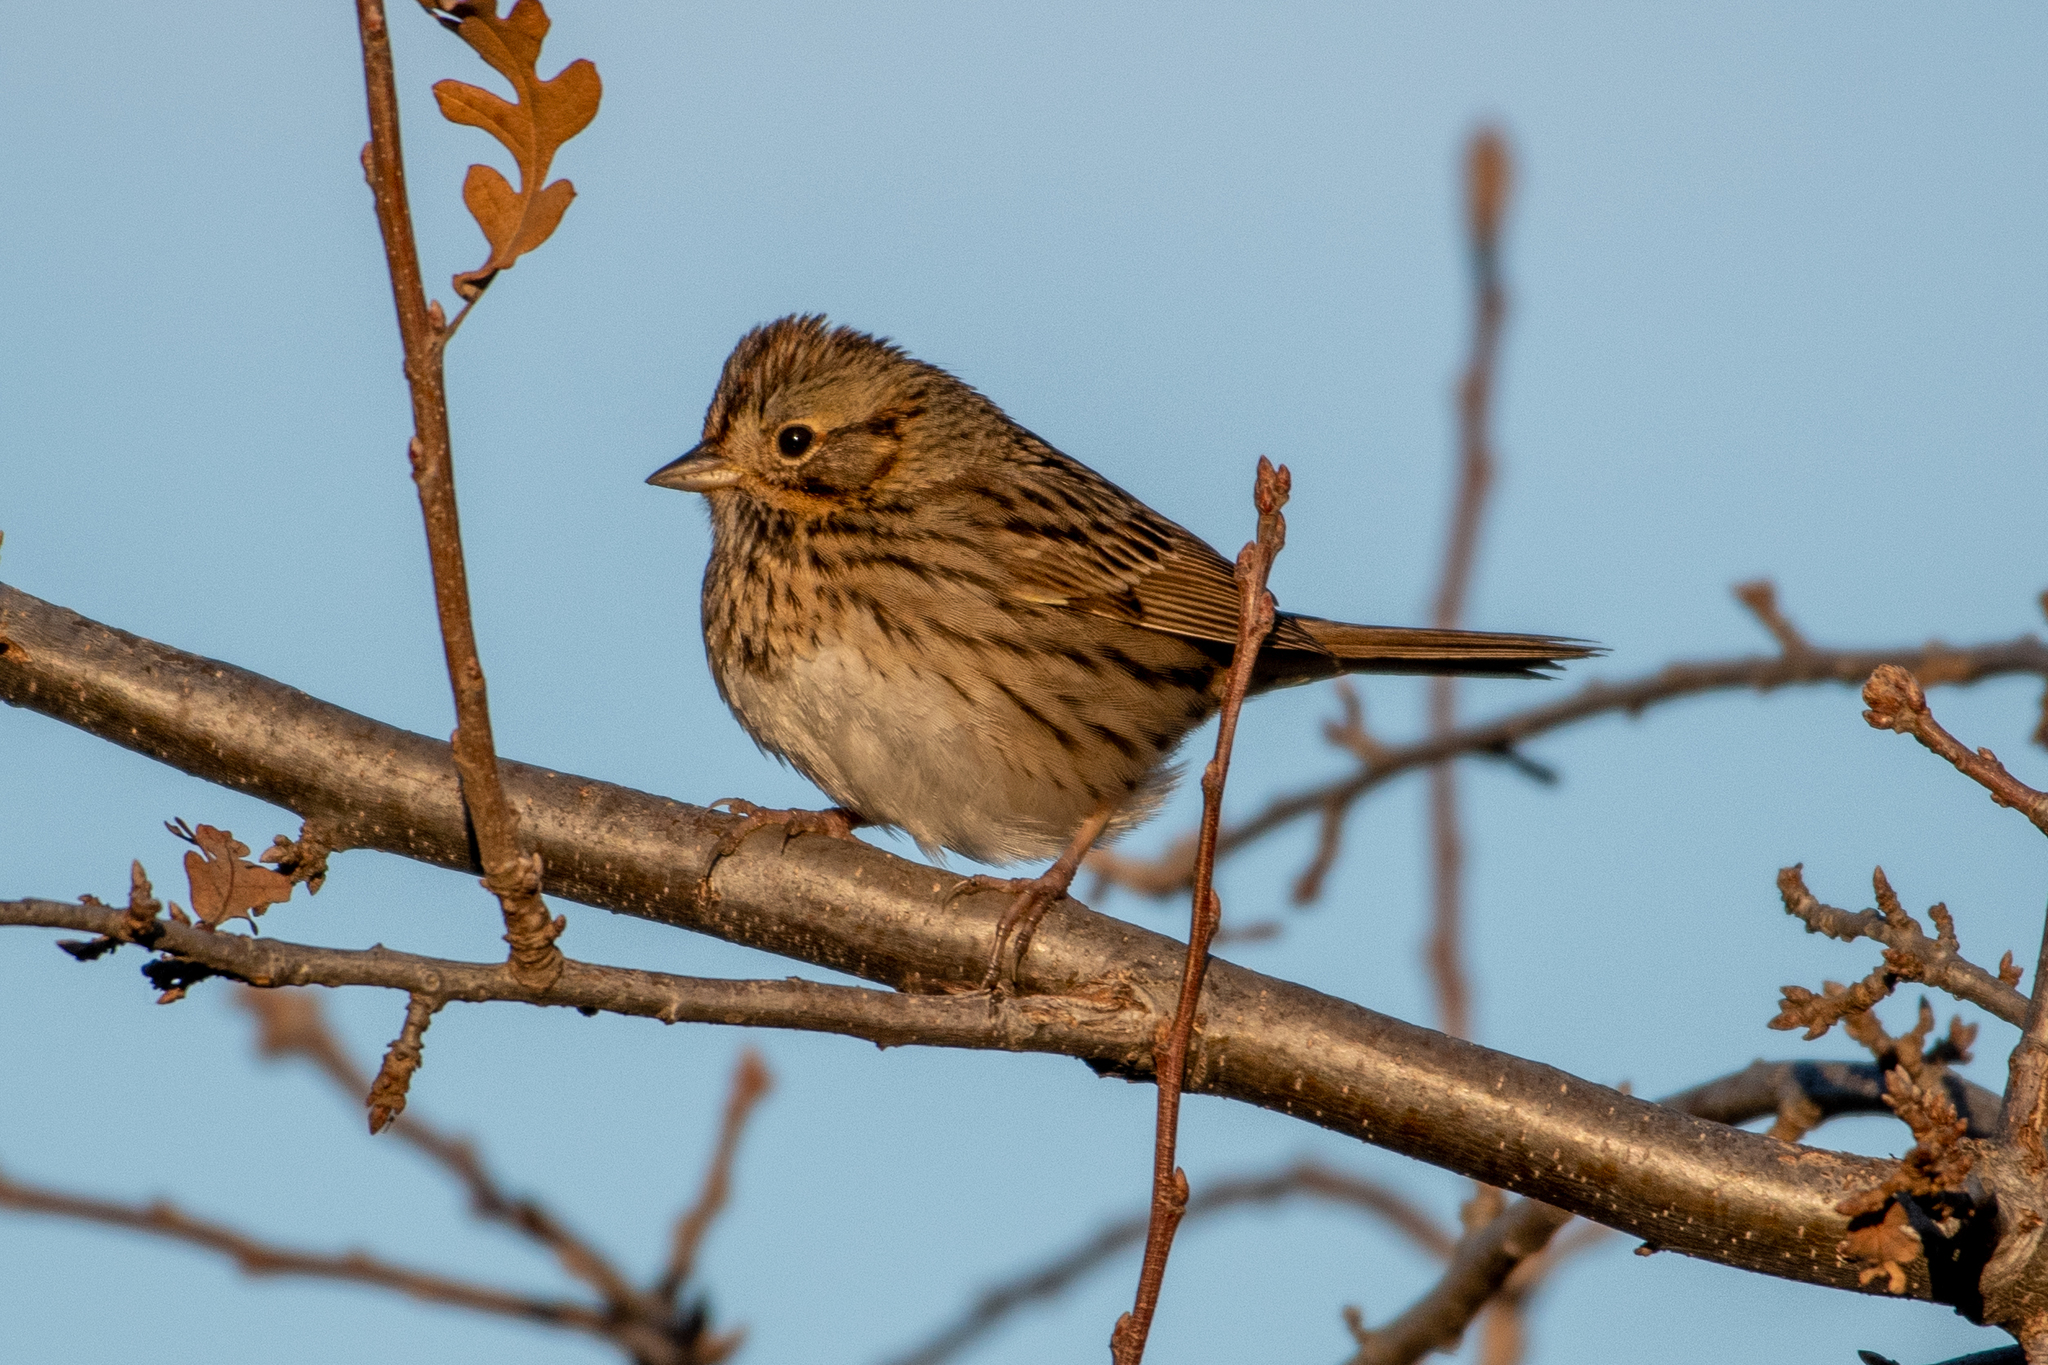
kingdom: Animalia
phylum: Chordata
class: Aves
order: Passeriformes
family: Passerellidae
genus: Melospiza
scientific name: Melospiza lincolnii
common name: Lincoln's sparrow
